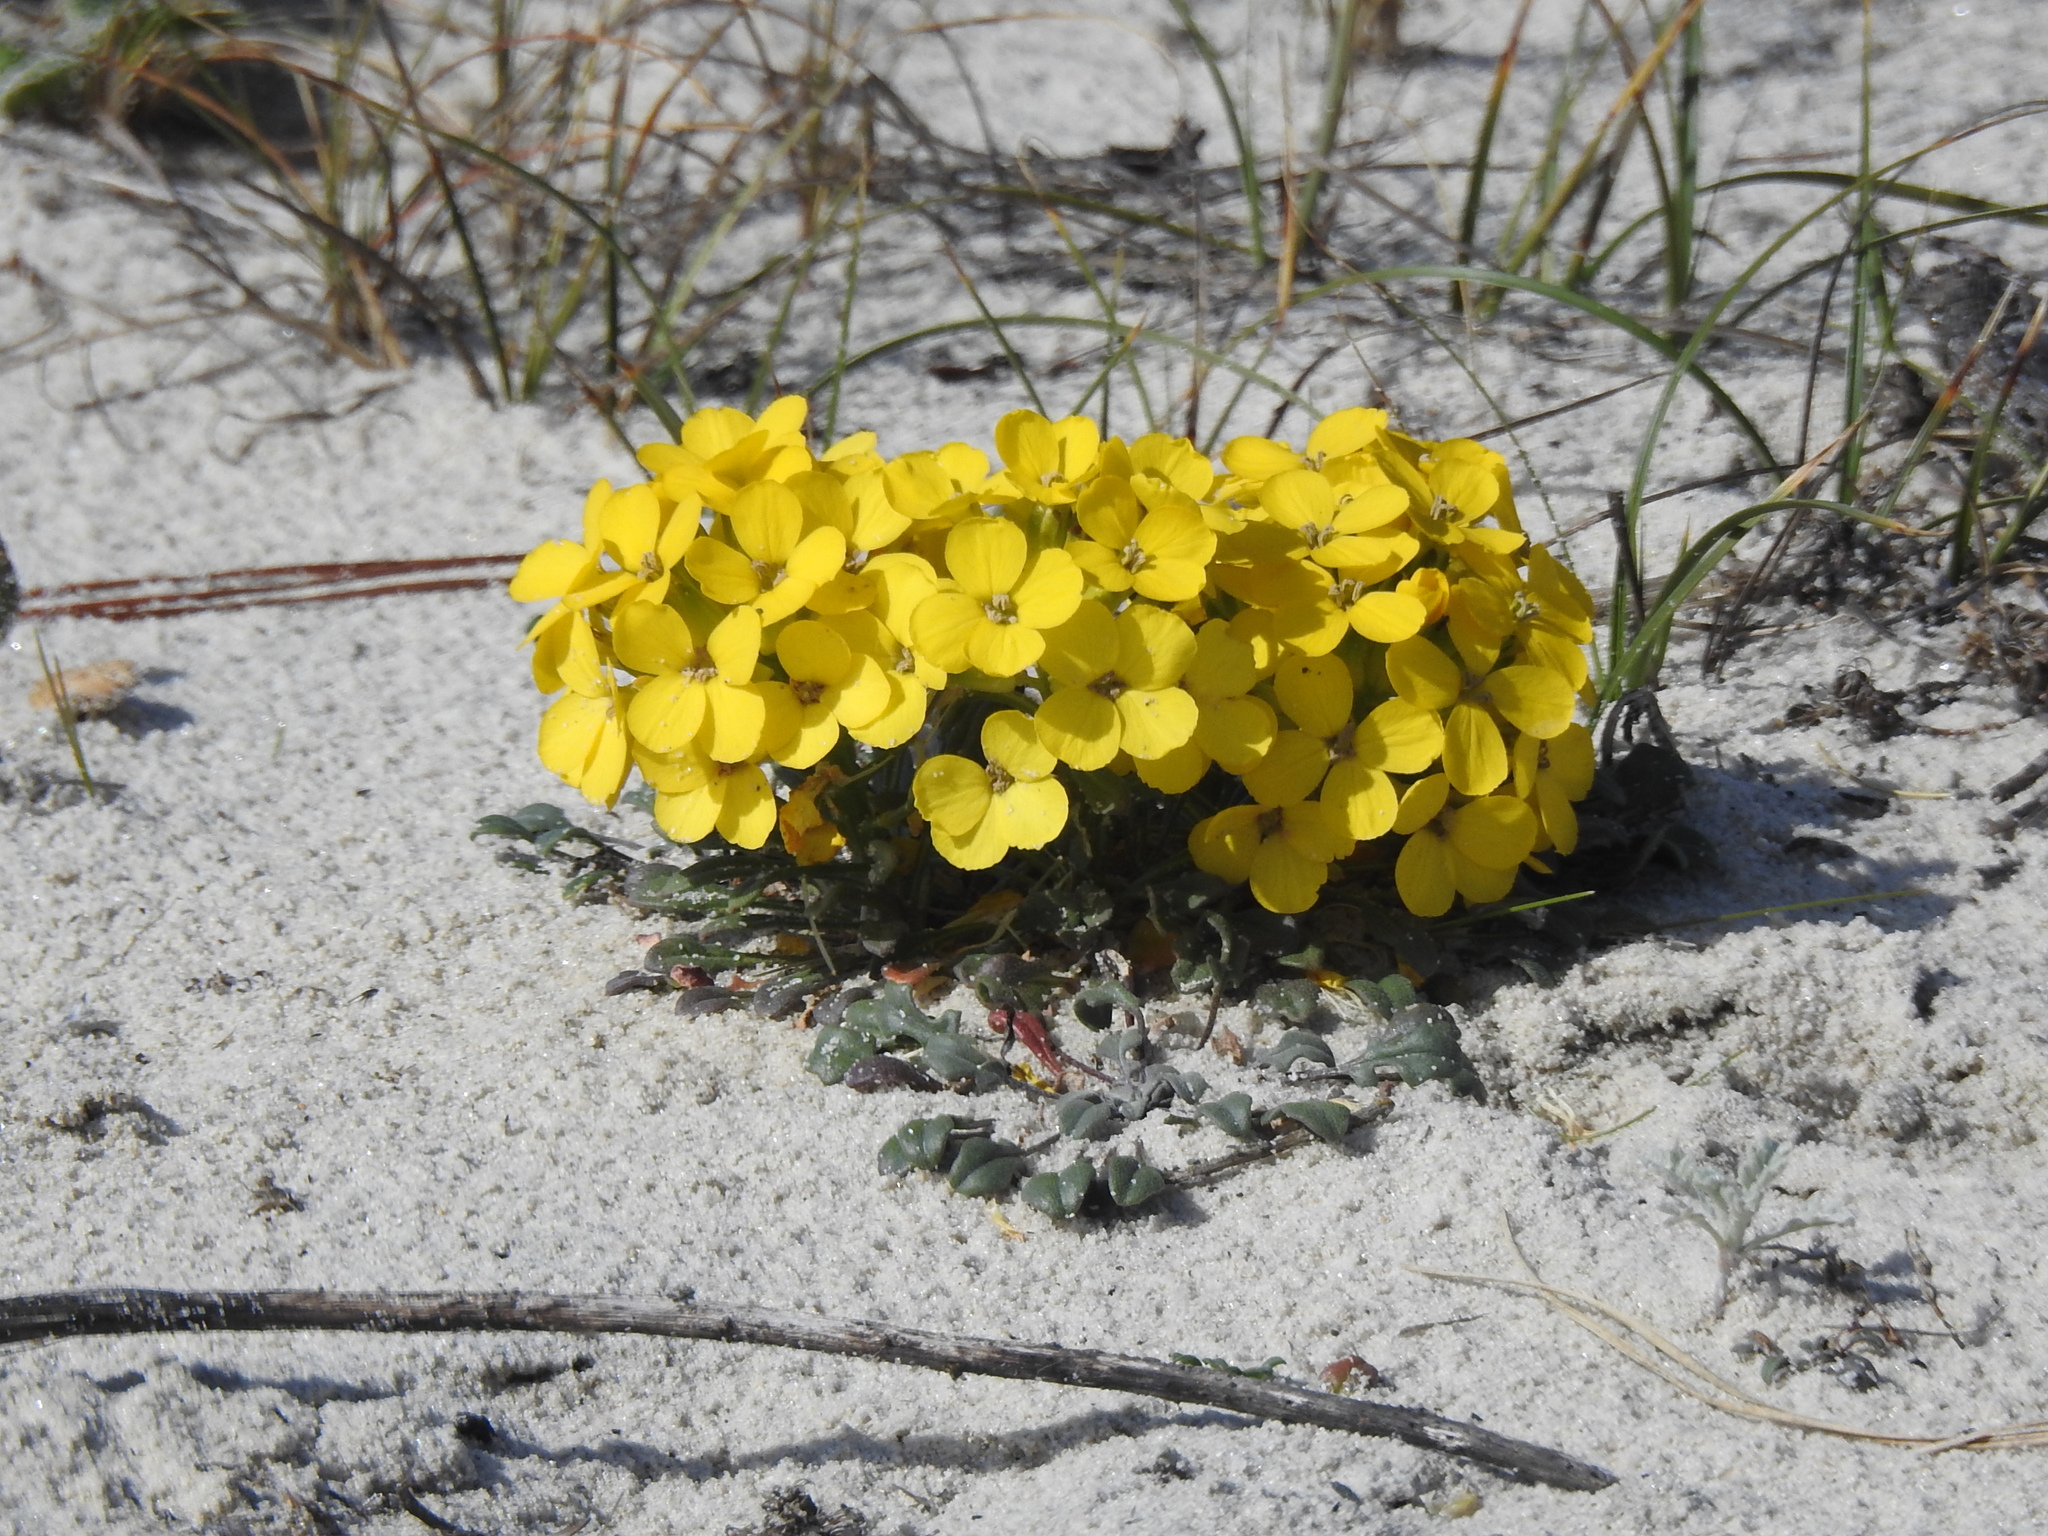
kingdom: Plantae
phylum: Tracheophyta
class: Magnoliopsida
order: Brassicales
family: Brassicaceae
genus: Erysimum
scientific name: Erysimum menziesii
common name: Menzies's wallflower
